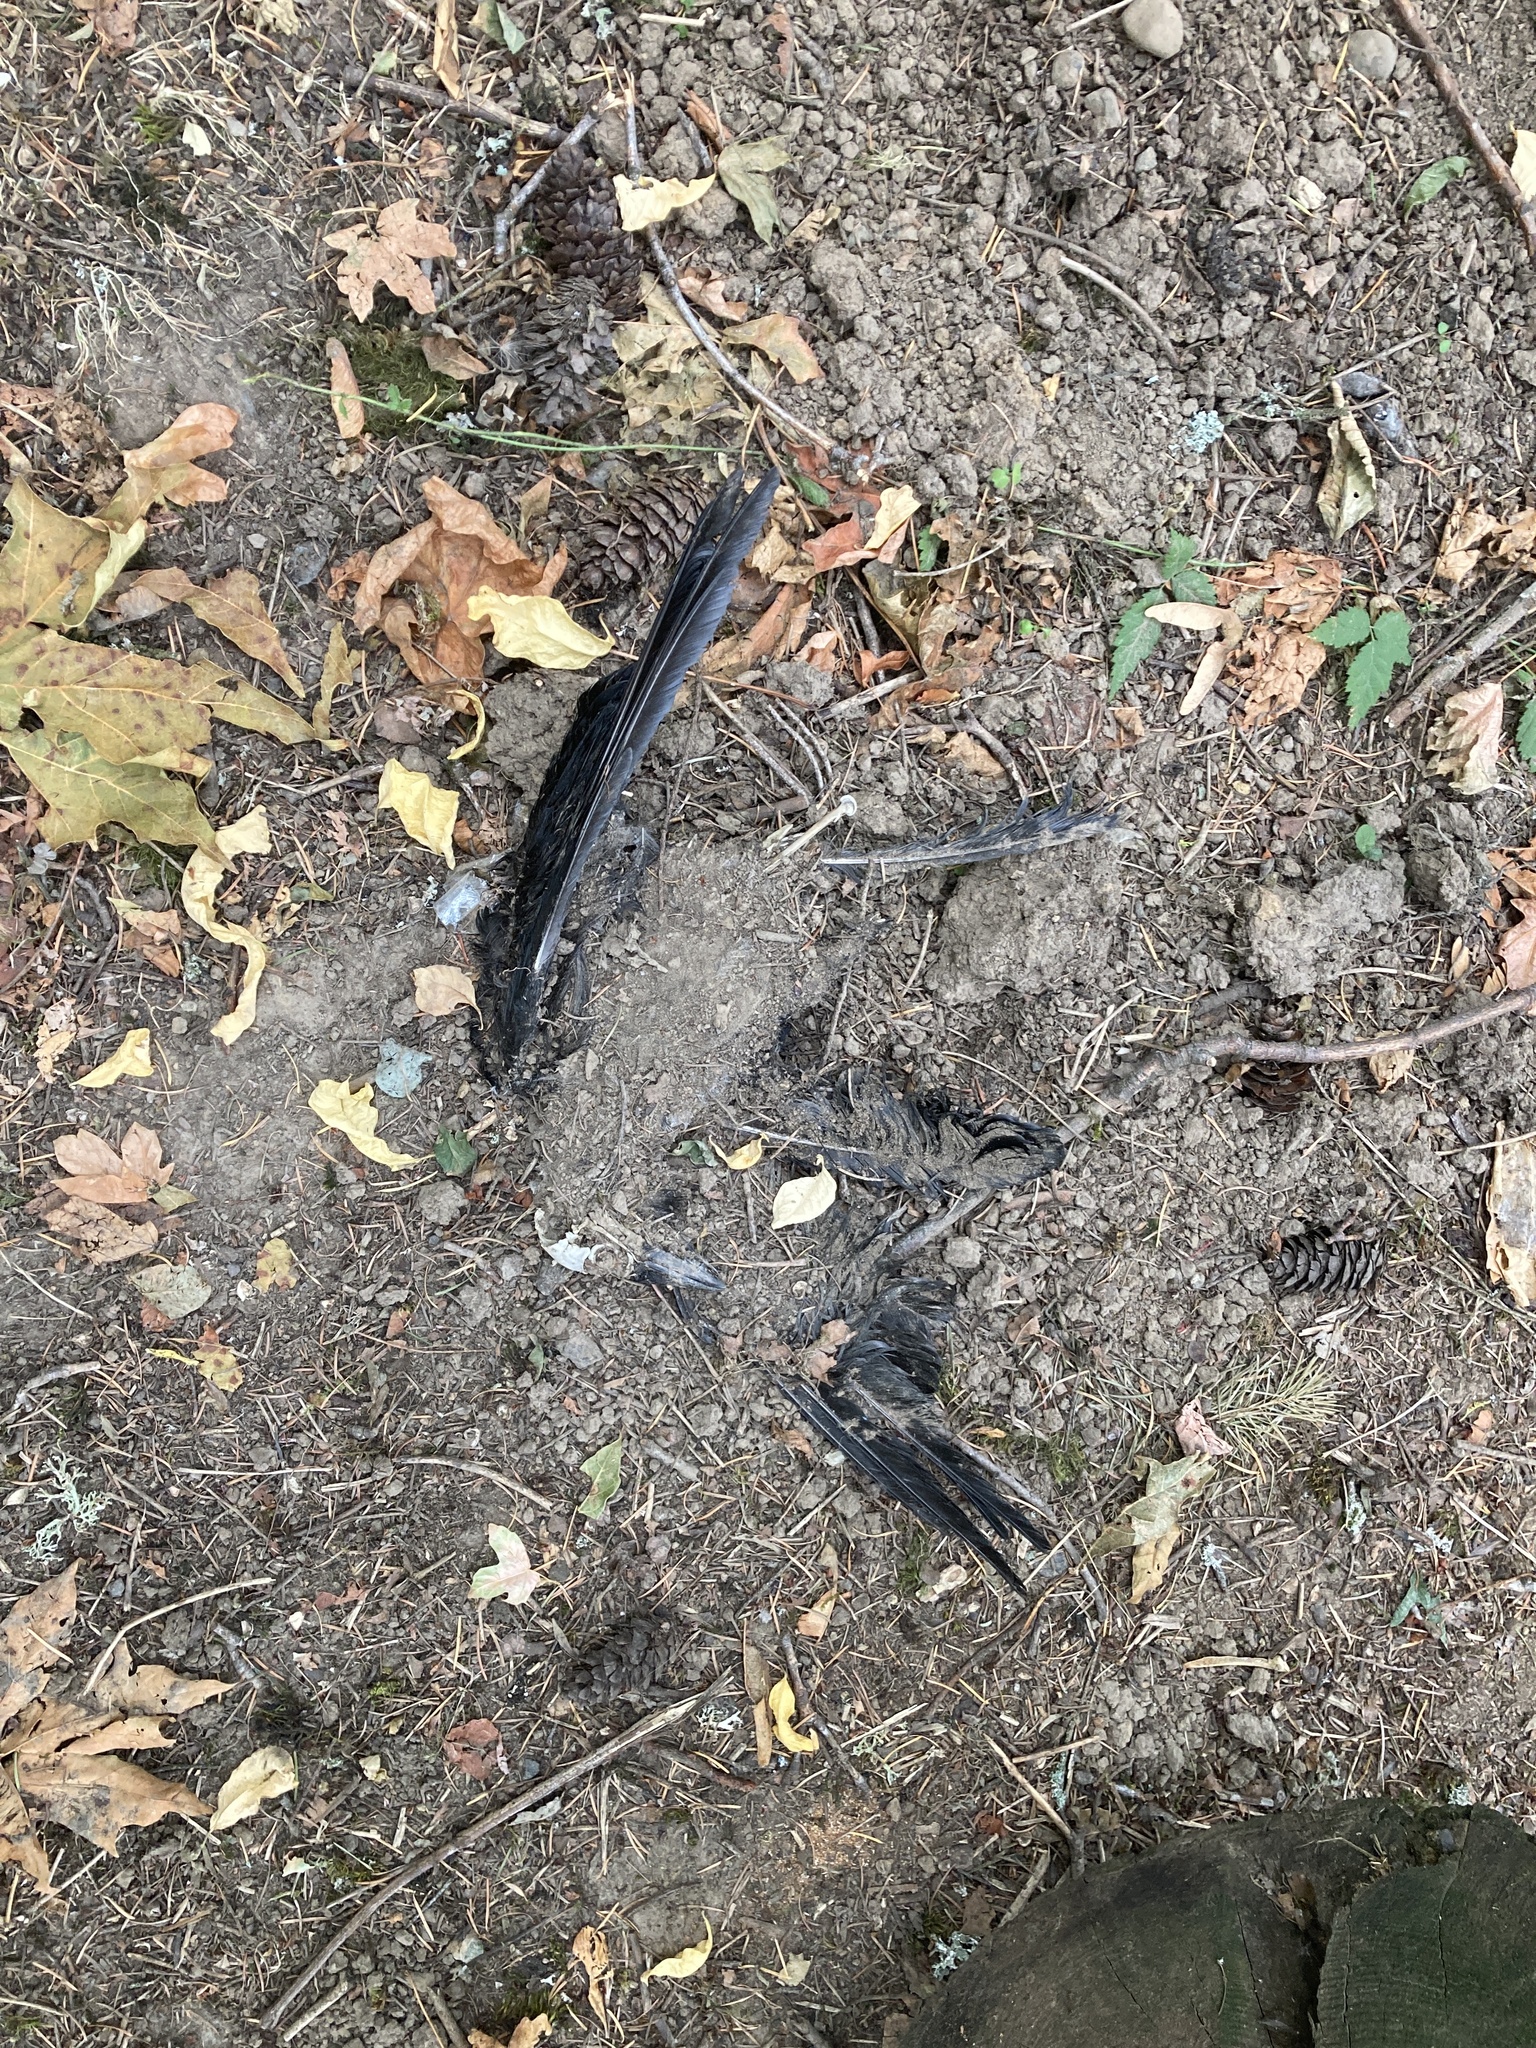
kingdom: Animalia
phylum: Chordata
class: Aves
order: Passeriformes
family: Corvidae
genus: Corvus
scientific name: Corvus brachyrhynchos
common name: American crow
